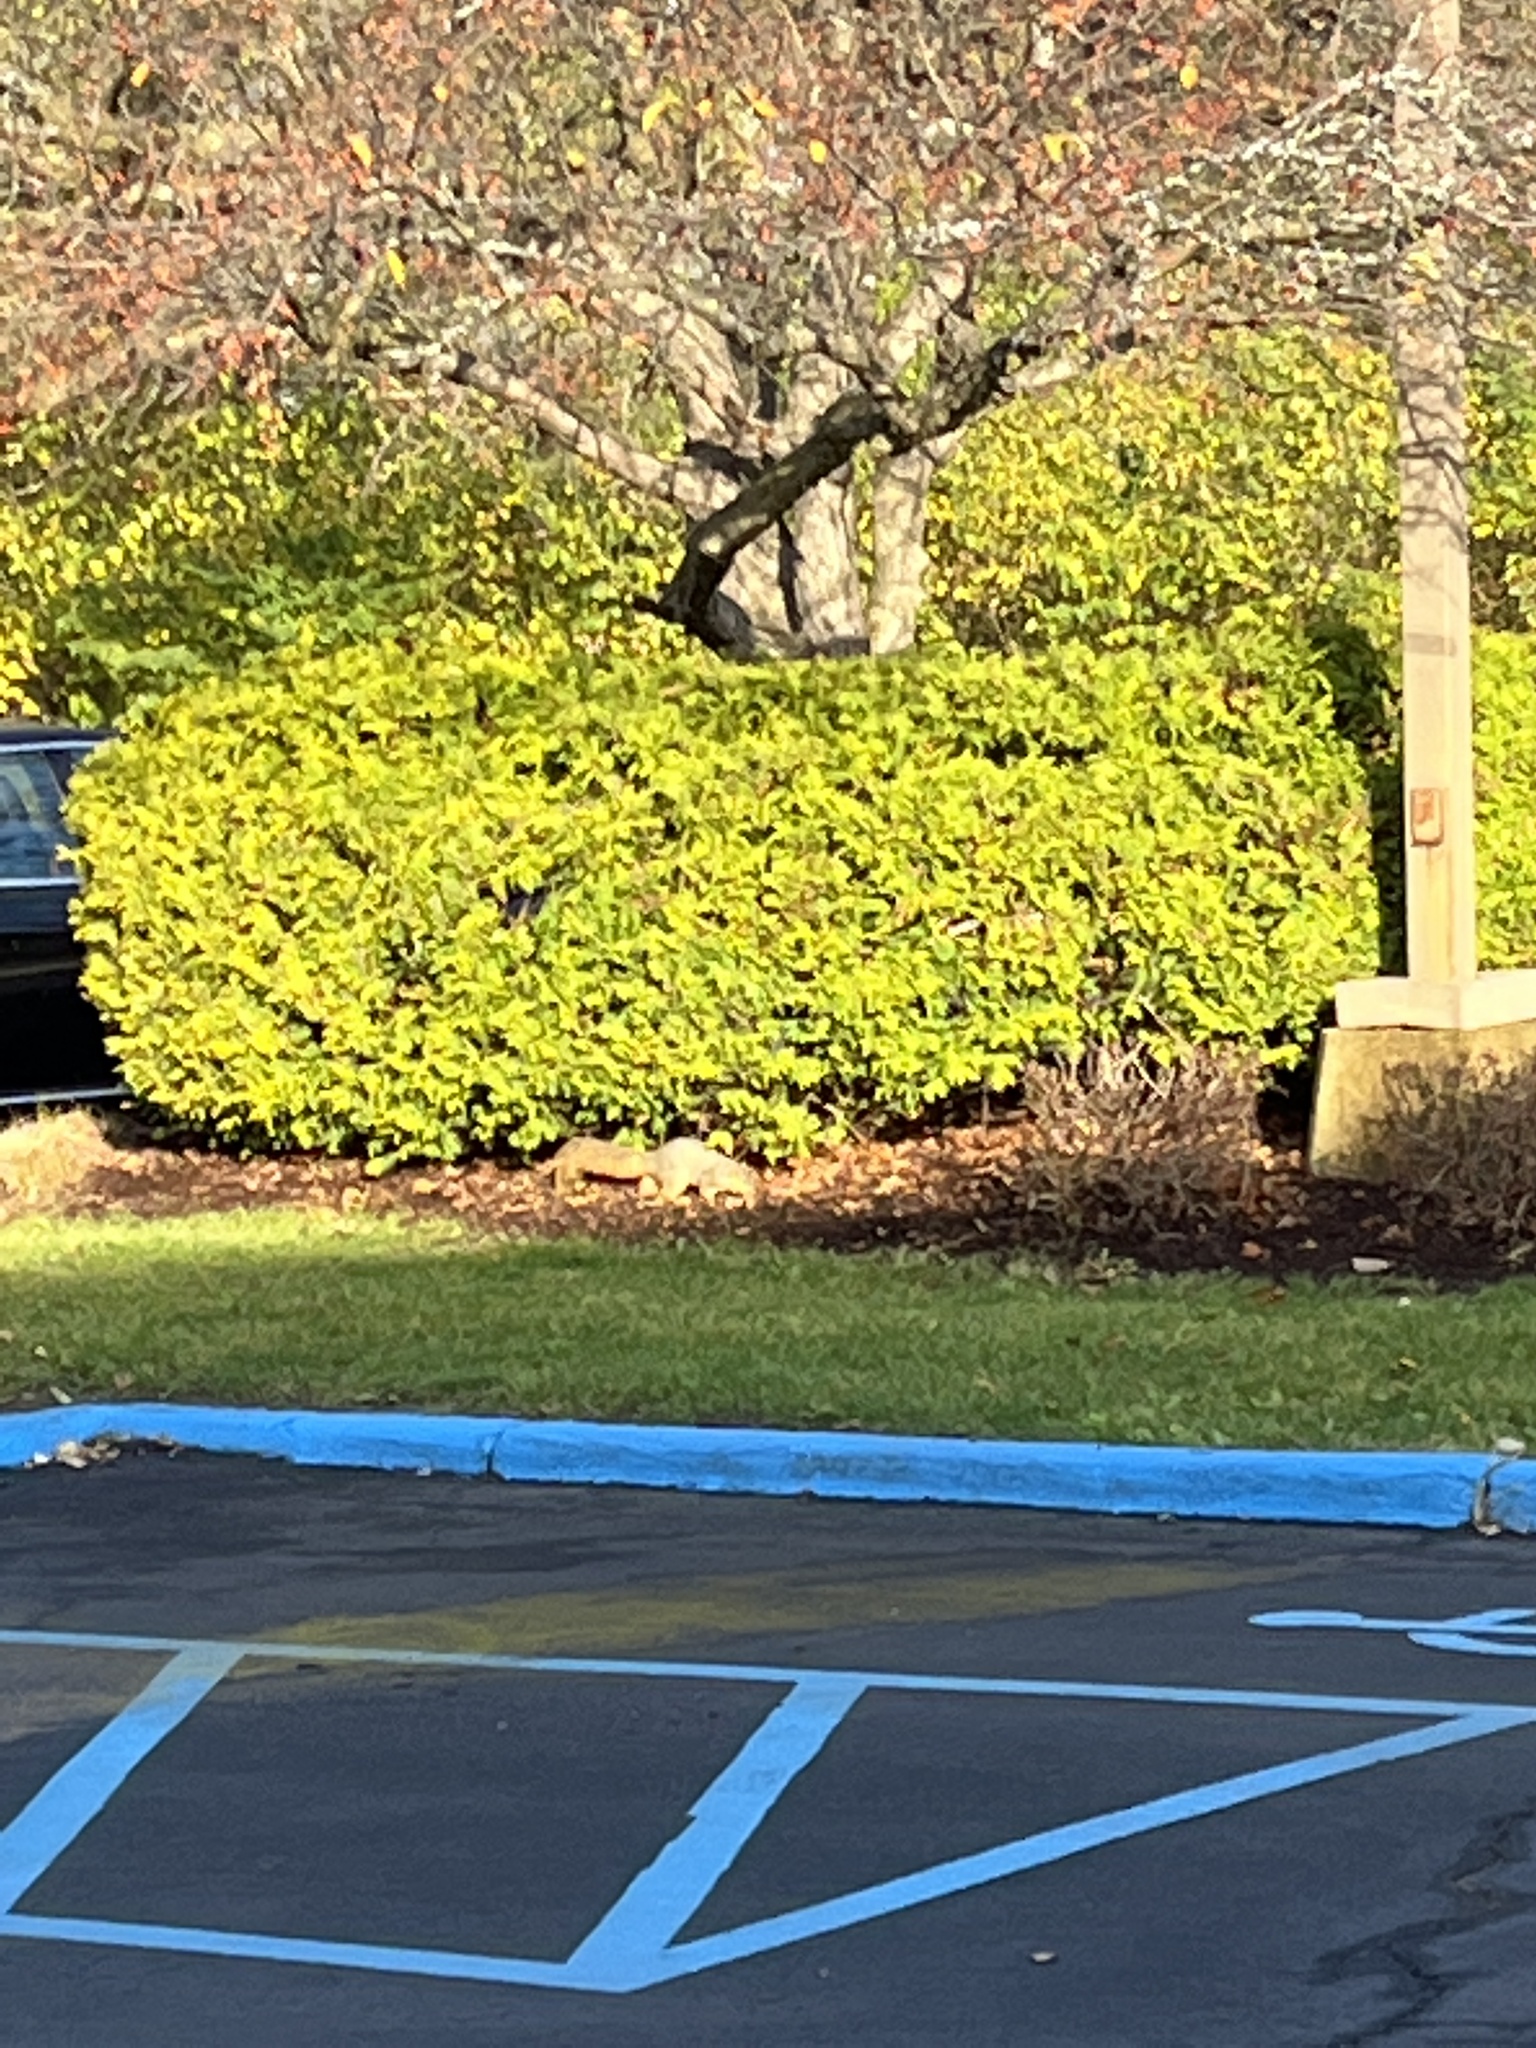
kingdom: Animalia
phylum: Chordata
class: Mammalia
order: Rodentia
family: Sciuridae
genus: Sciurus
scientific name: Sciurus niger
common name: Fox squirrel
